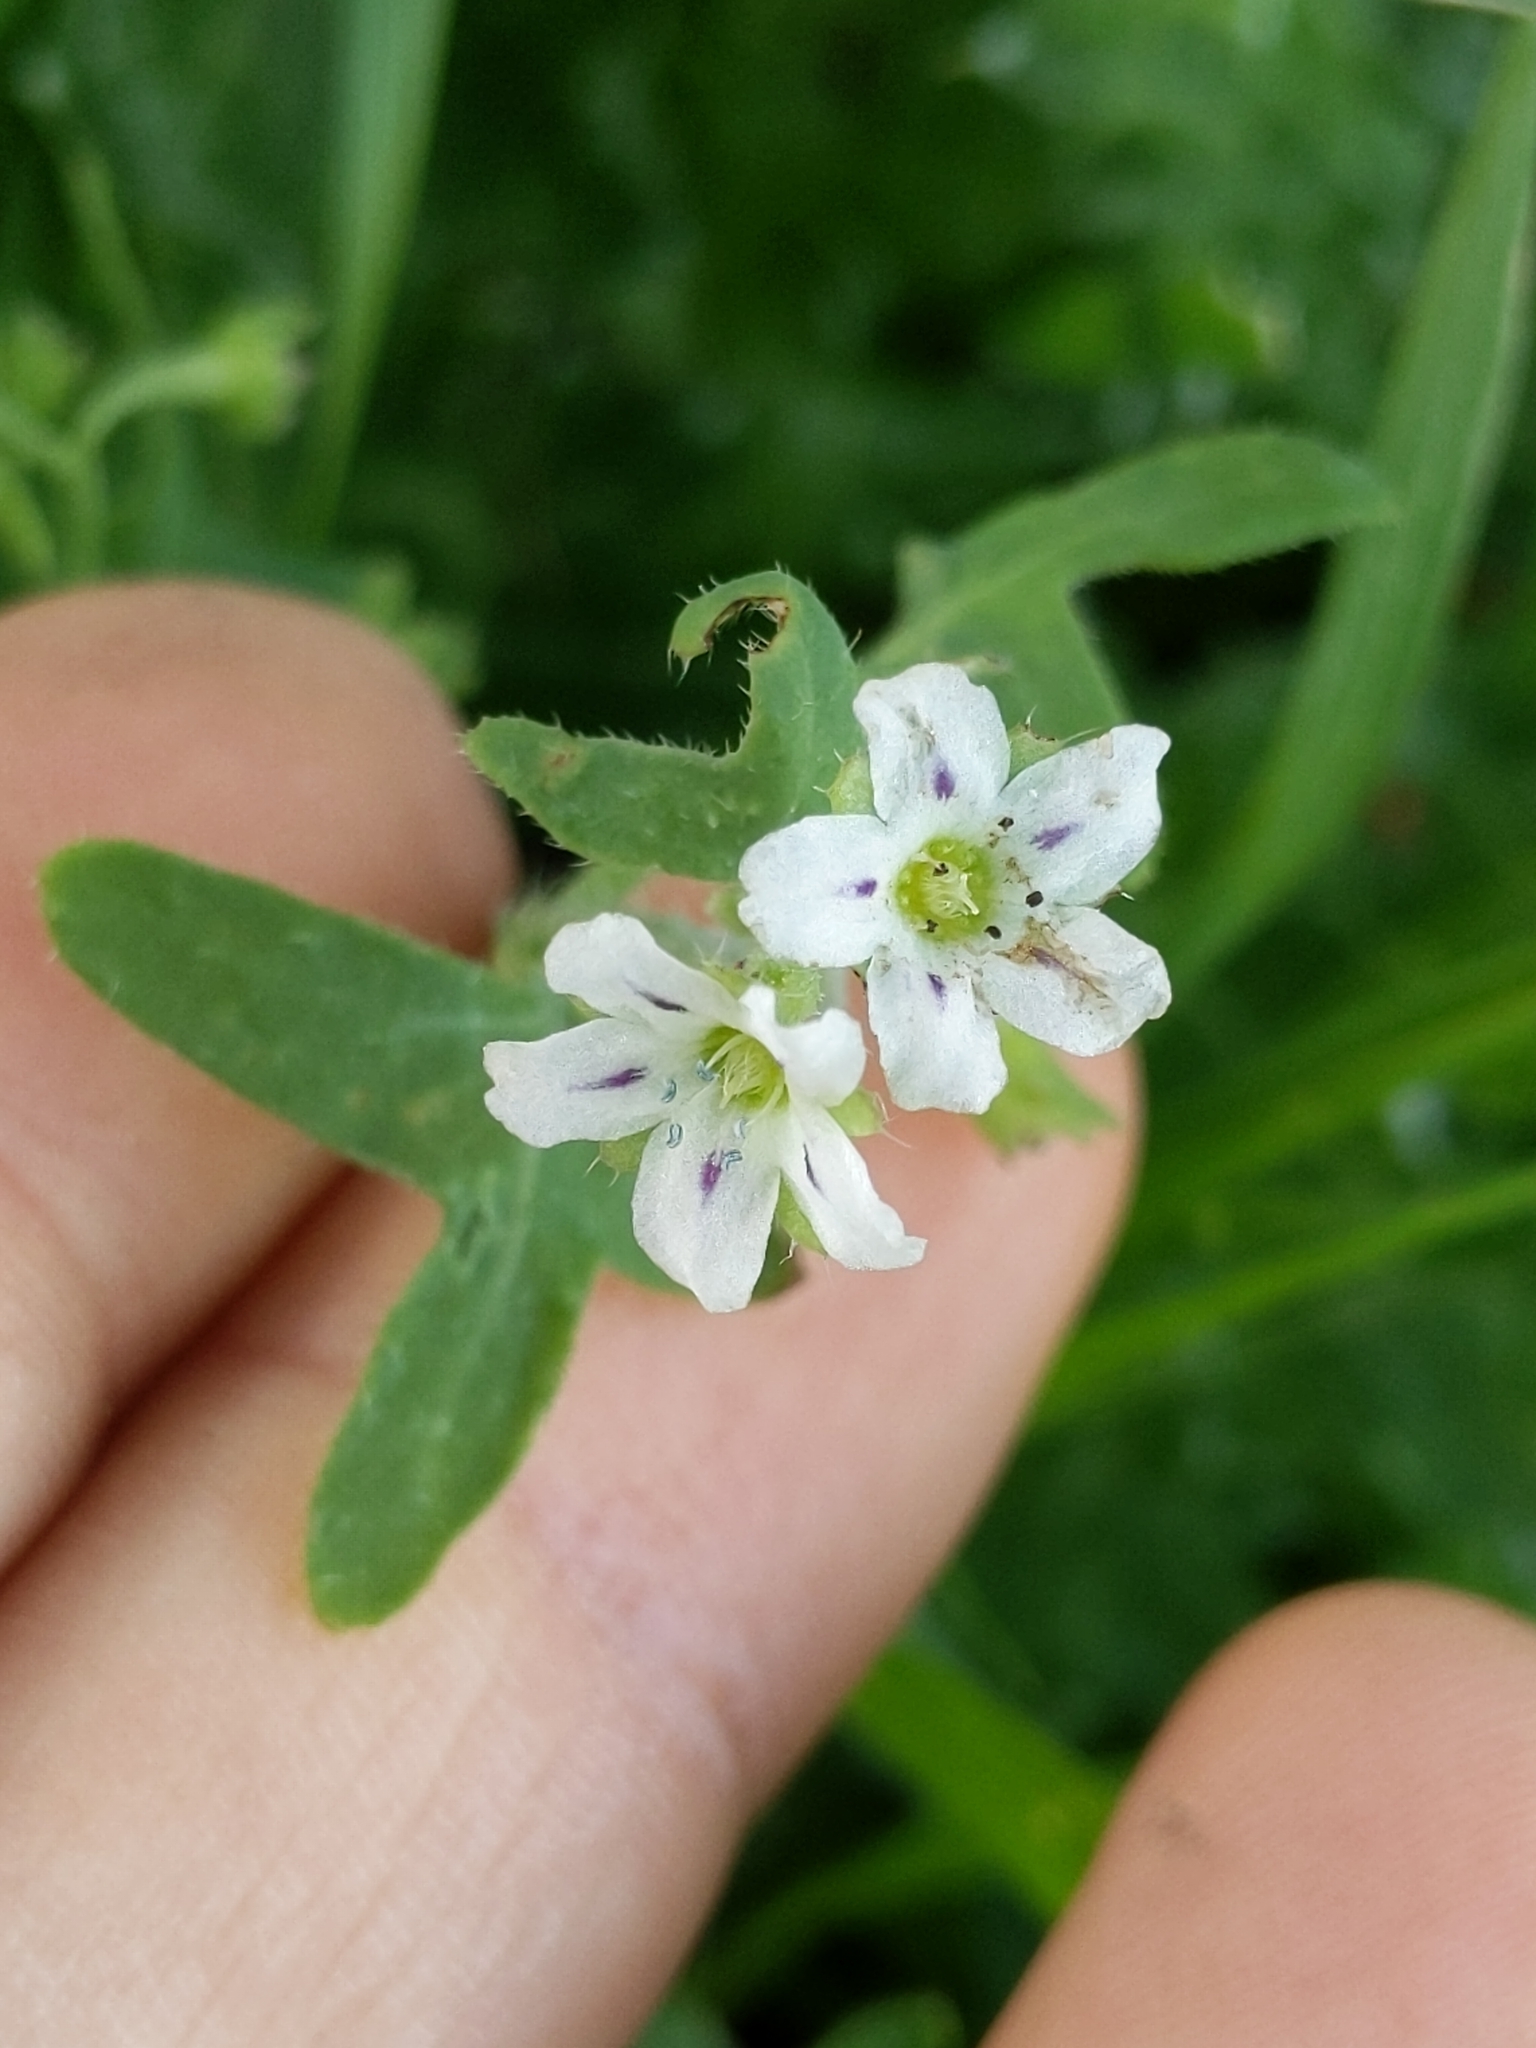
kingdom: Plantae
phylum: Tracheophyta
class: Magnoliopsida
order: Boraginales
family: Hydrophyllaceae
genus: Pholistoma
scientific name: Pholistoma membranaceum
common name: White fiesta-flower
